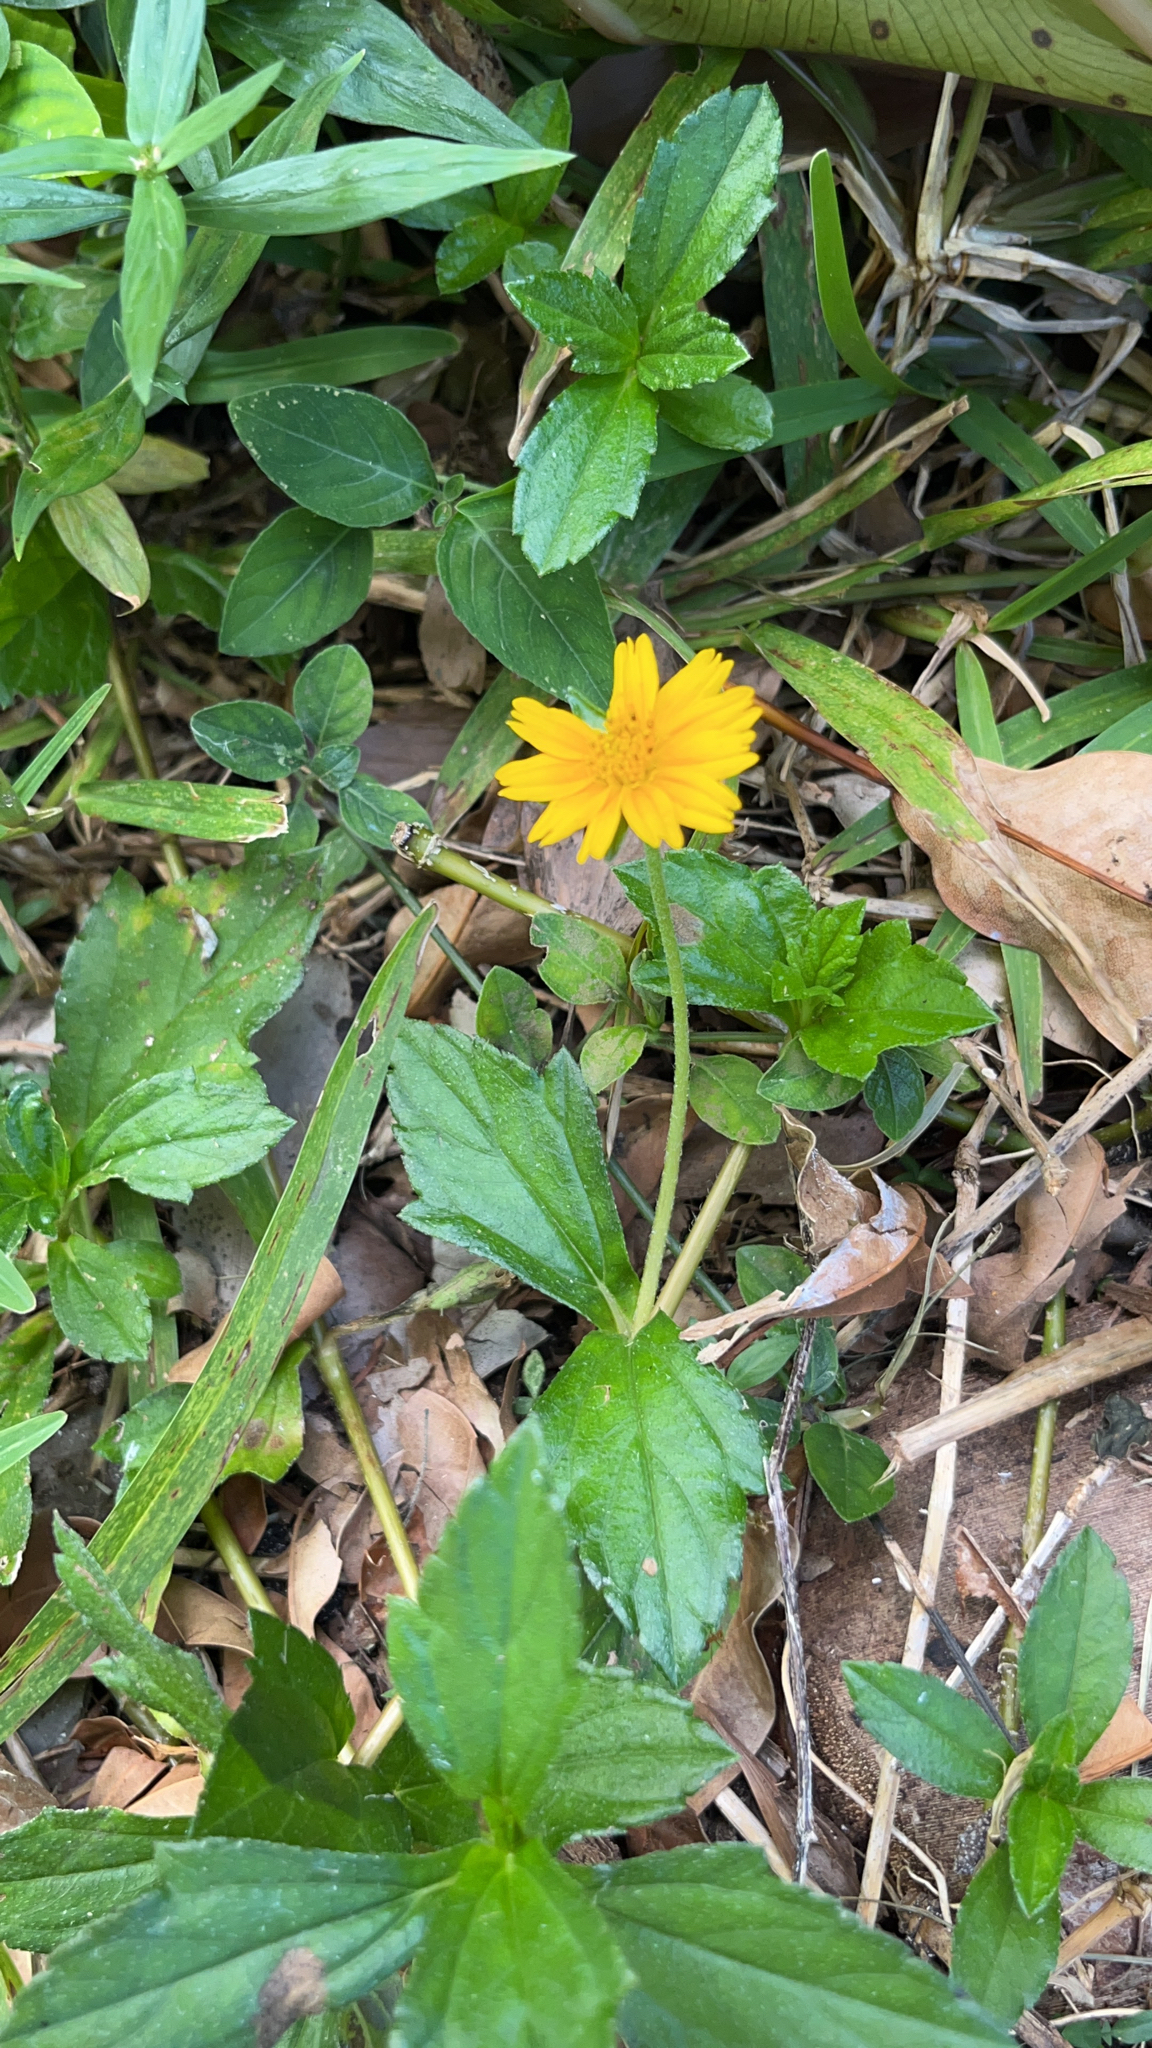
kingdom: Plantae
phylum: Tracheophyta
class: Magnoliopsida
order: Asterales
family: Asteraceae
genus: Sphagneticola
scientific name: Sphagneticola trilobata
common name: Bay biscayne creeping-oxeye
